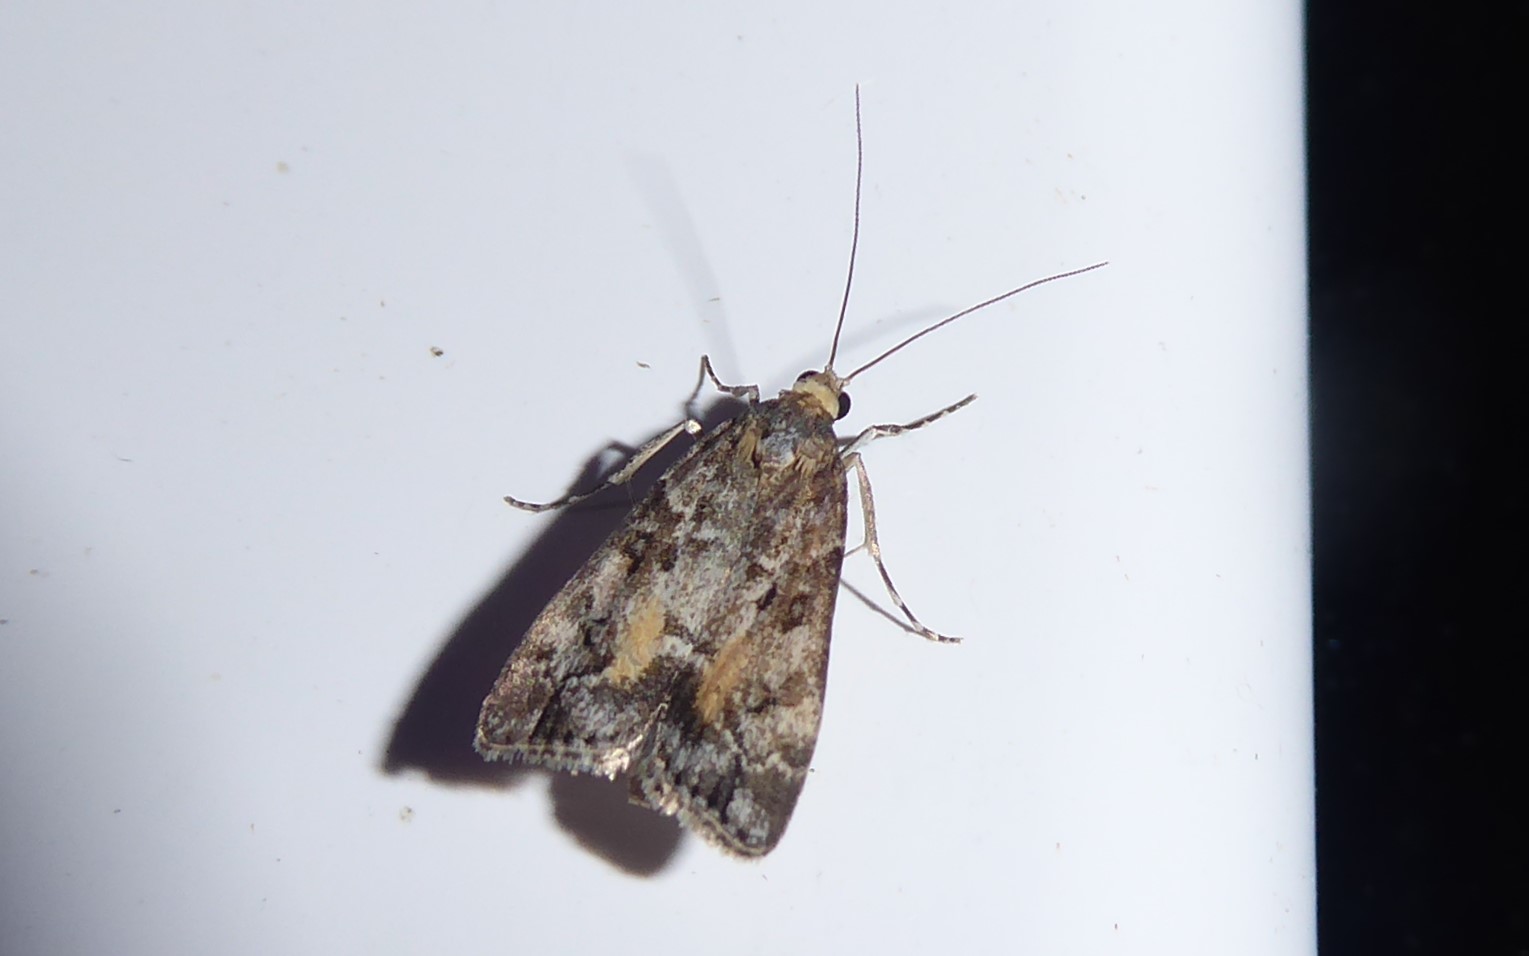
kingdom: Animalia
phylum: Arthropoda
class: Insecta
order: Lepidoptera
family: Crambidae
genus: Eudonia
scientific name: Eudonia submarginalis
